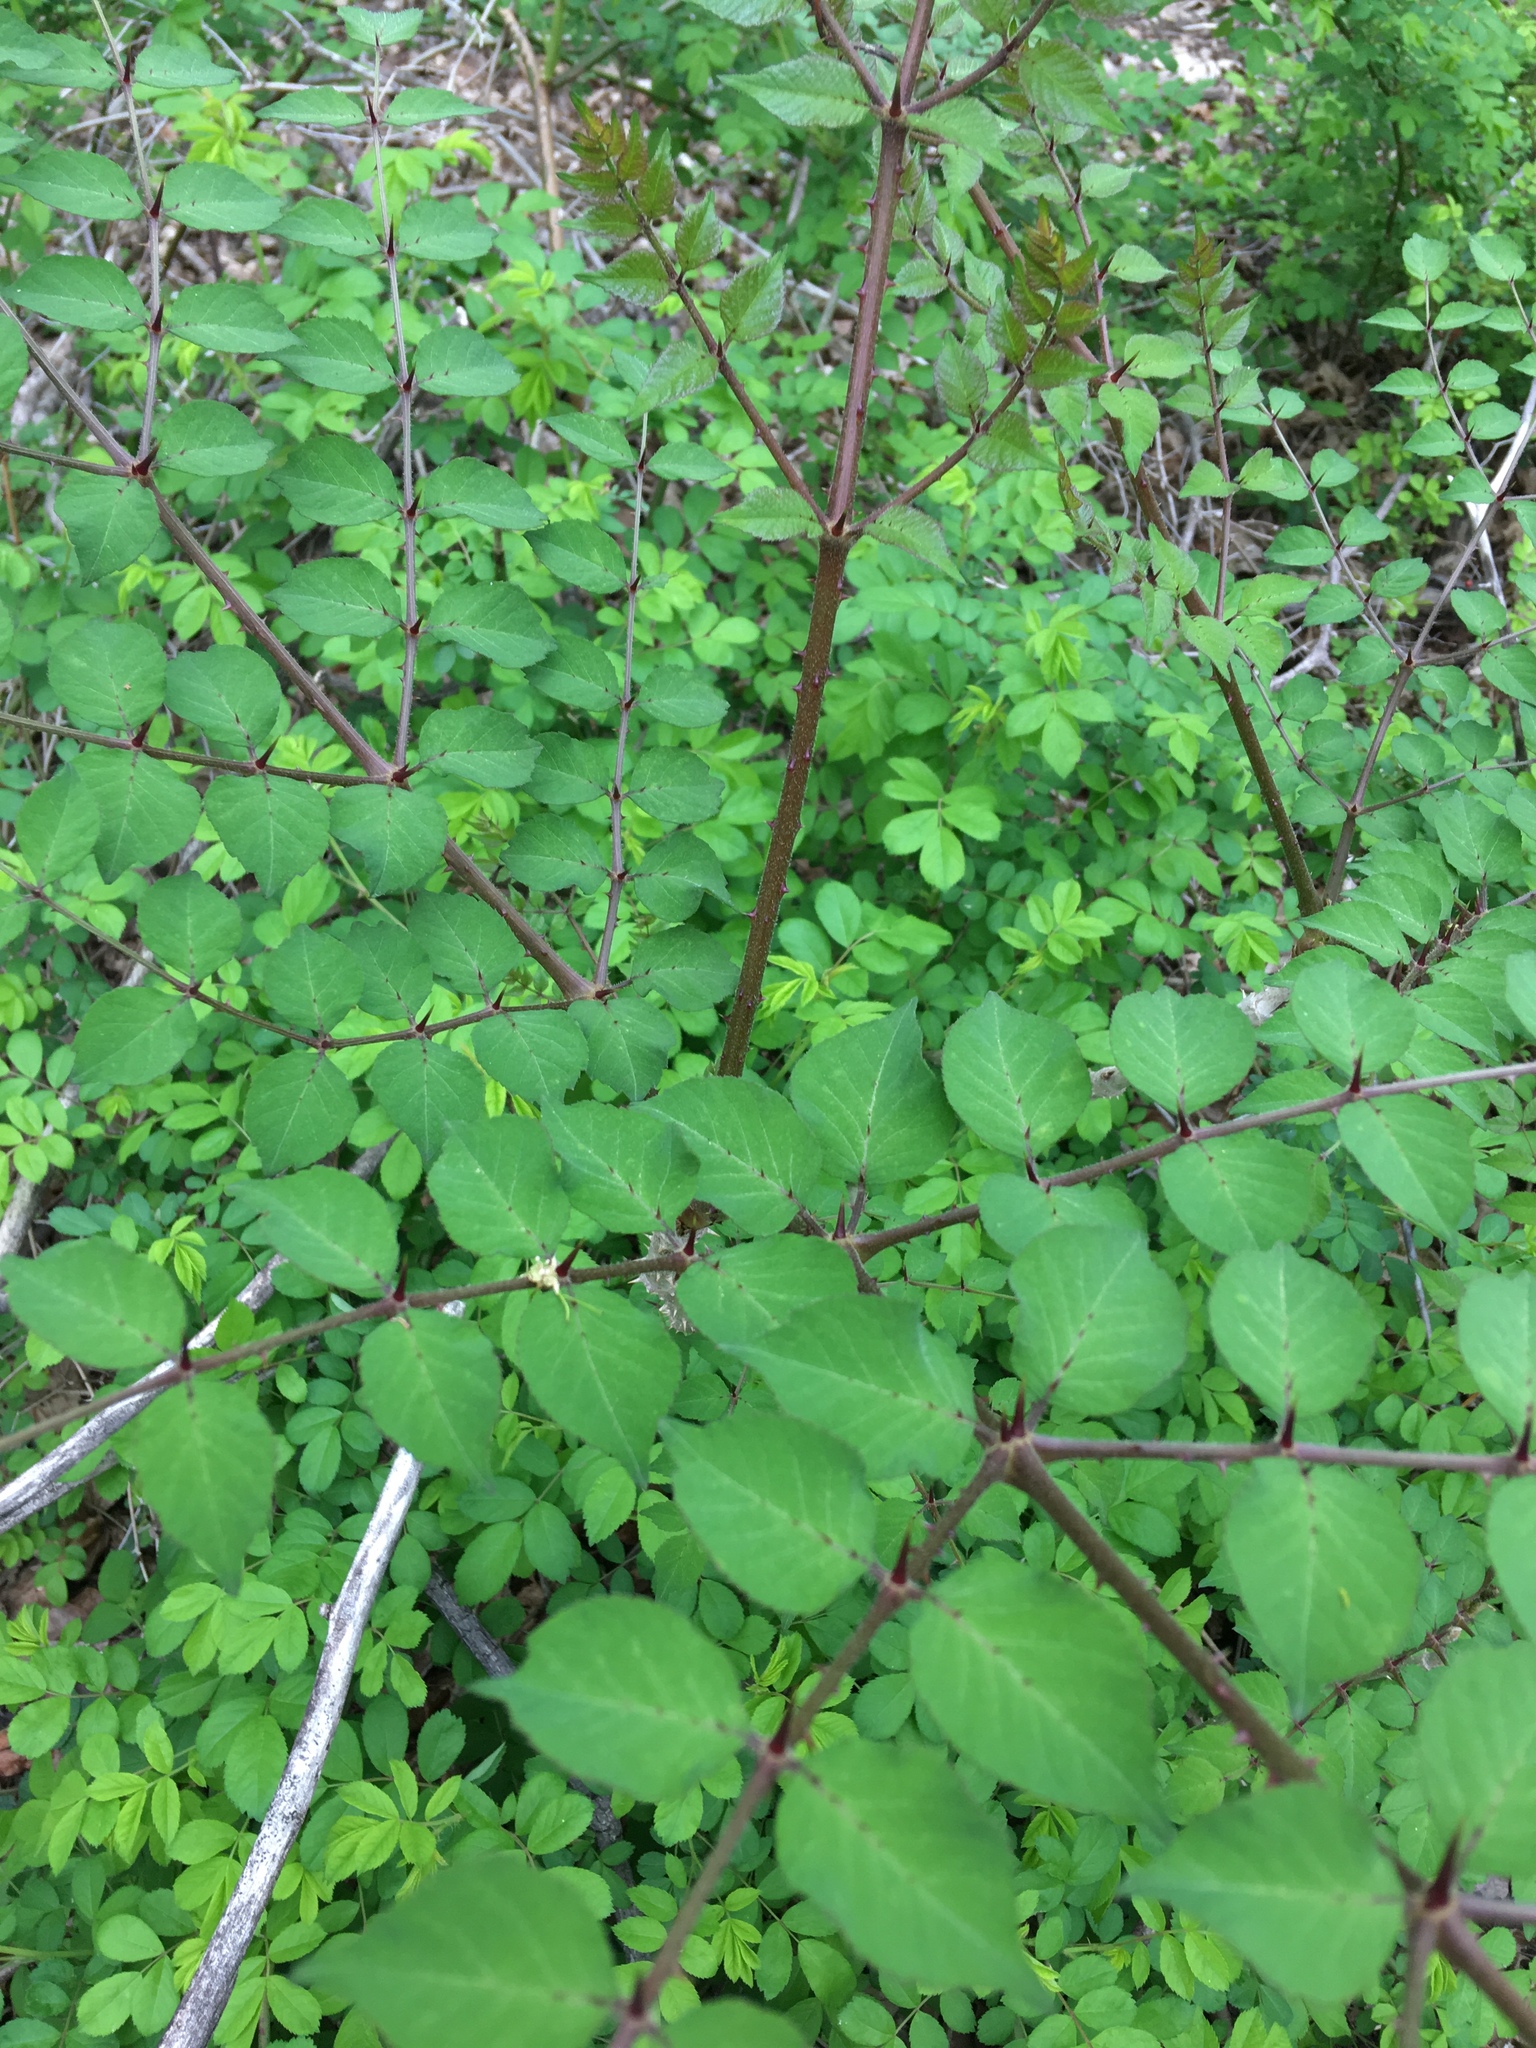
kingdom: Plantae
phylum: Tracheophyta
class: Magnoliopsida
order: Apiales
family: Araliaceae
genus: Aralia
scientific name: Aralia elata
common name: Japanese angelica-tree
